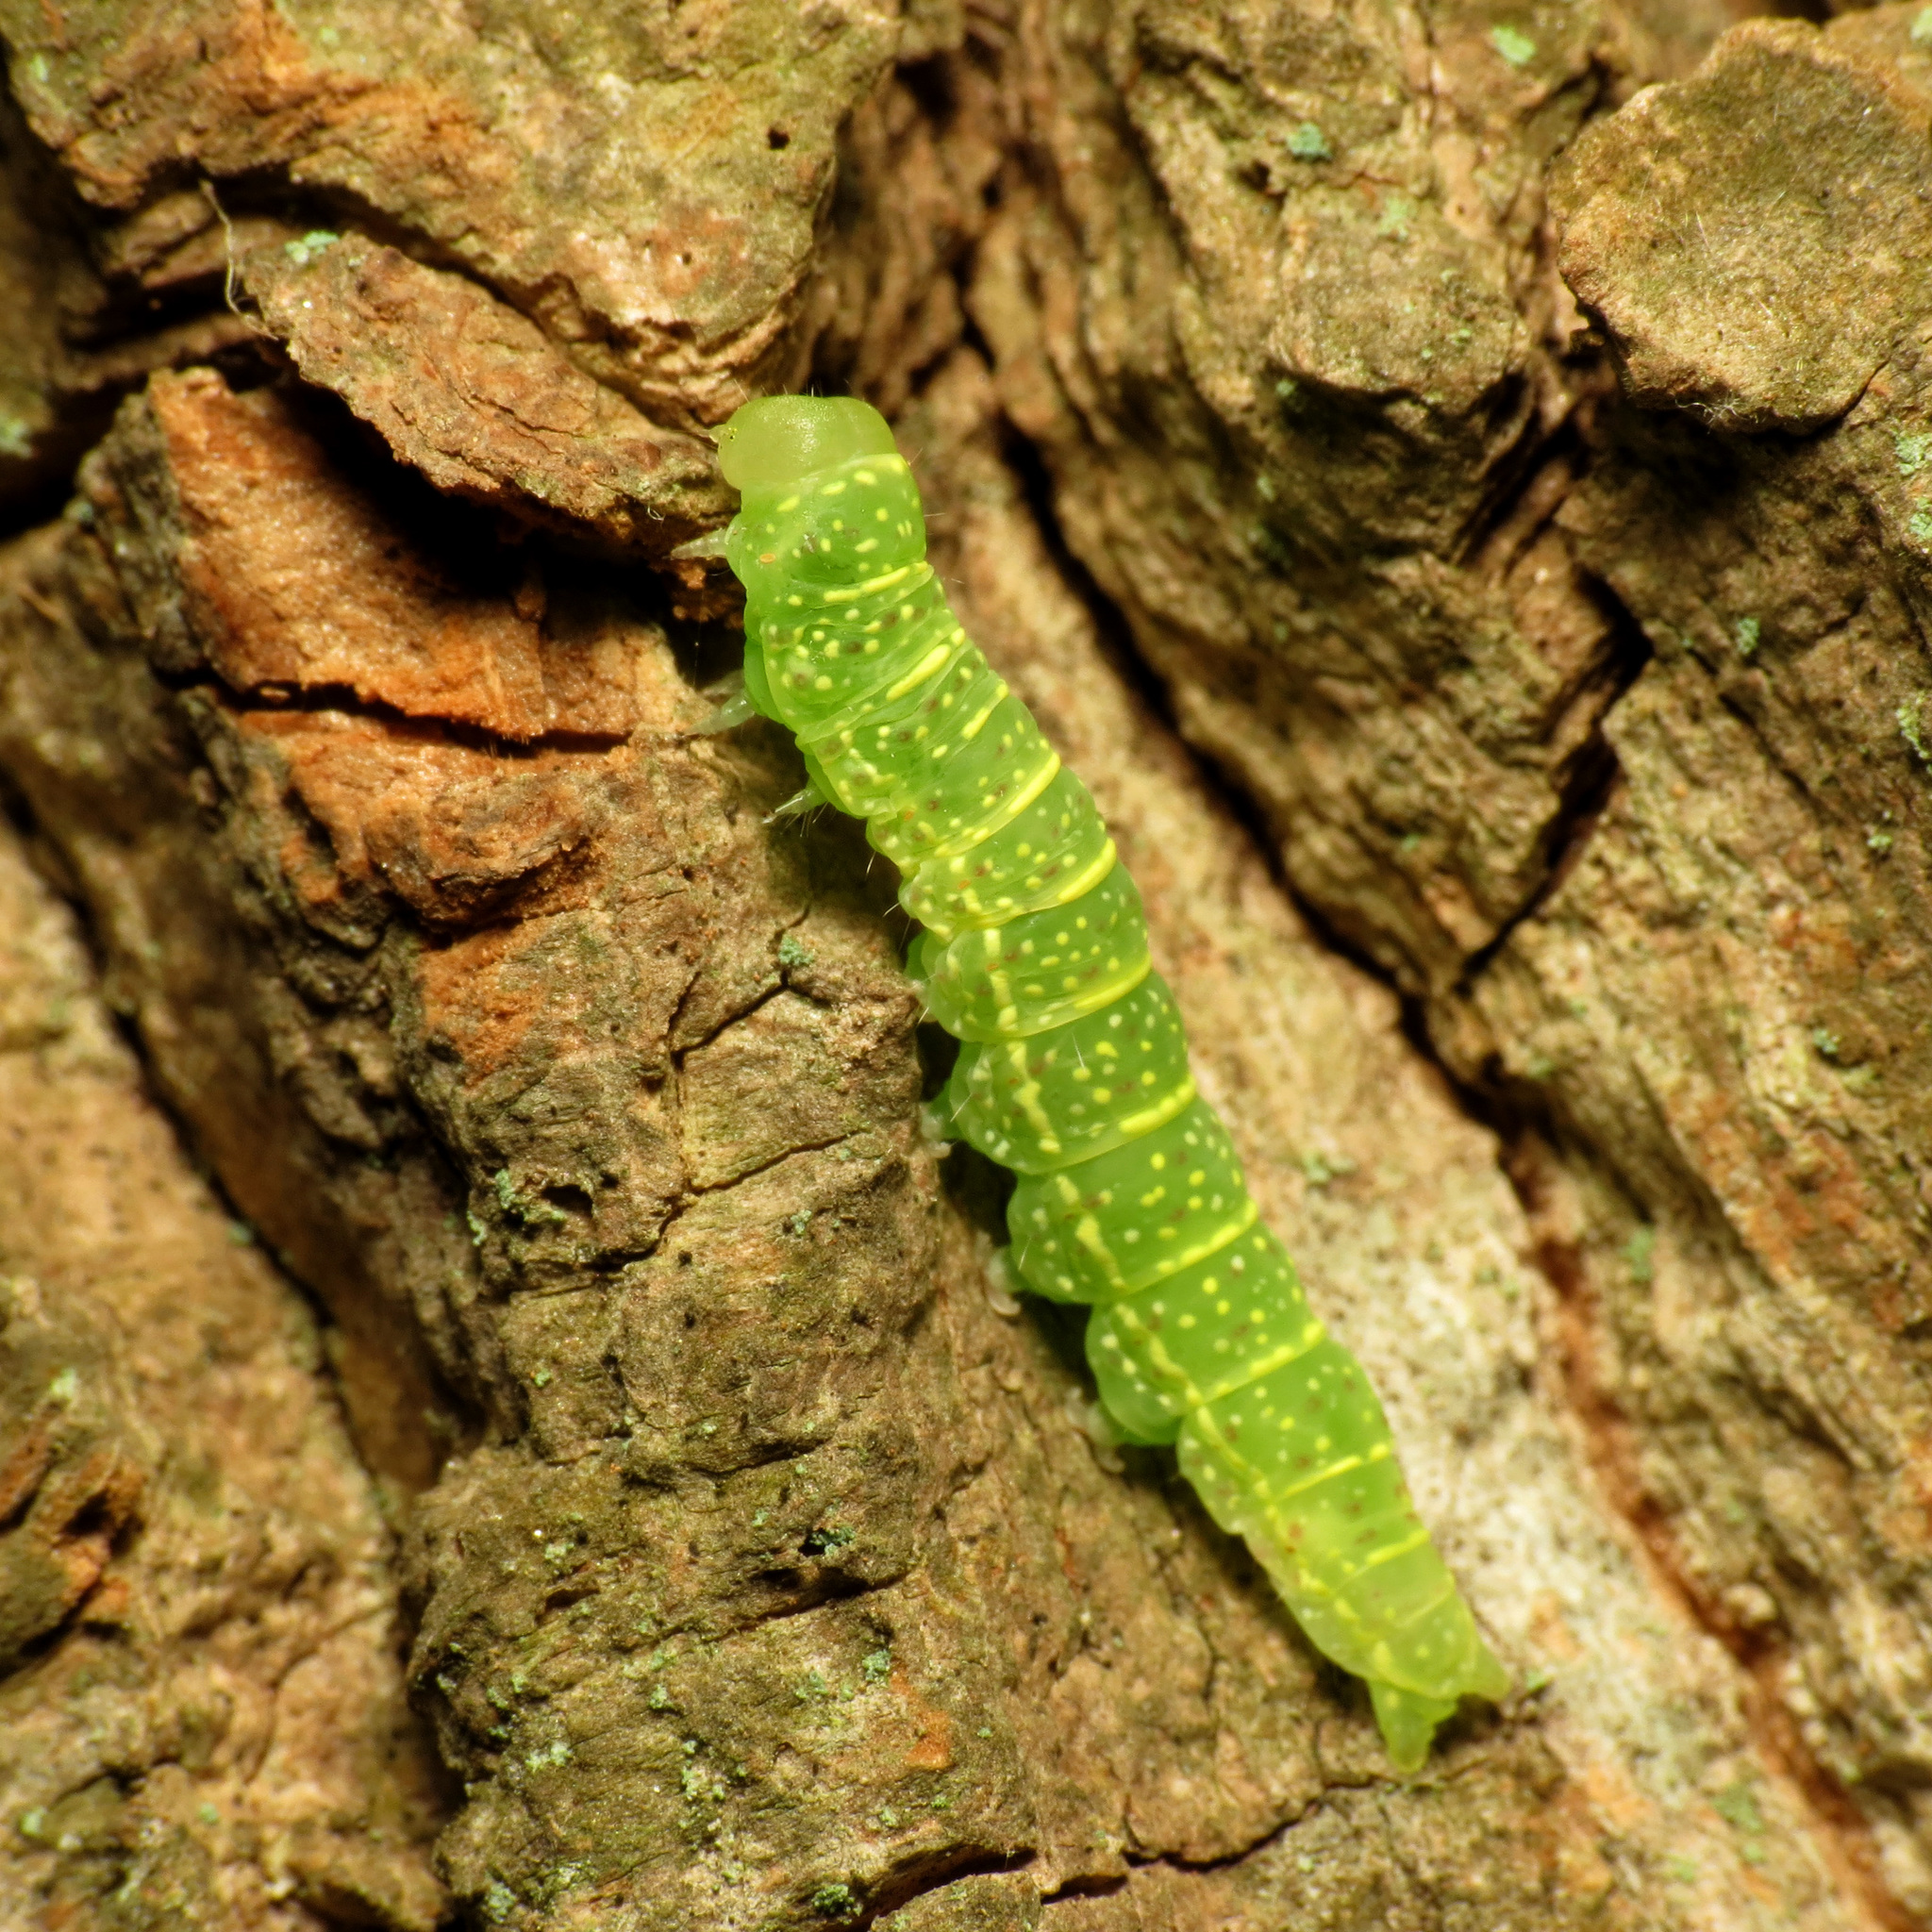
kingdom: Animalia
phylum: Arthropoda
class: Insecta
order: Lepidoptera
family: Euteliidae
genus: Paectes
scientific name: Paectes abrostoloides
